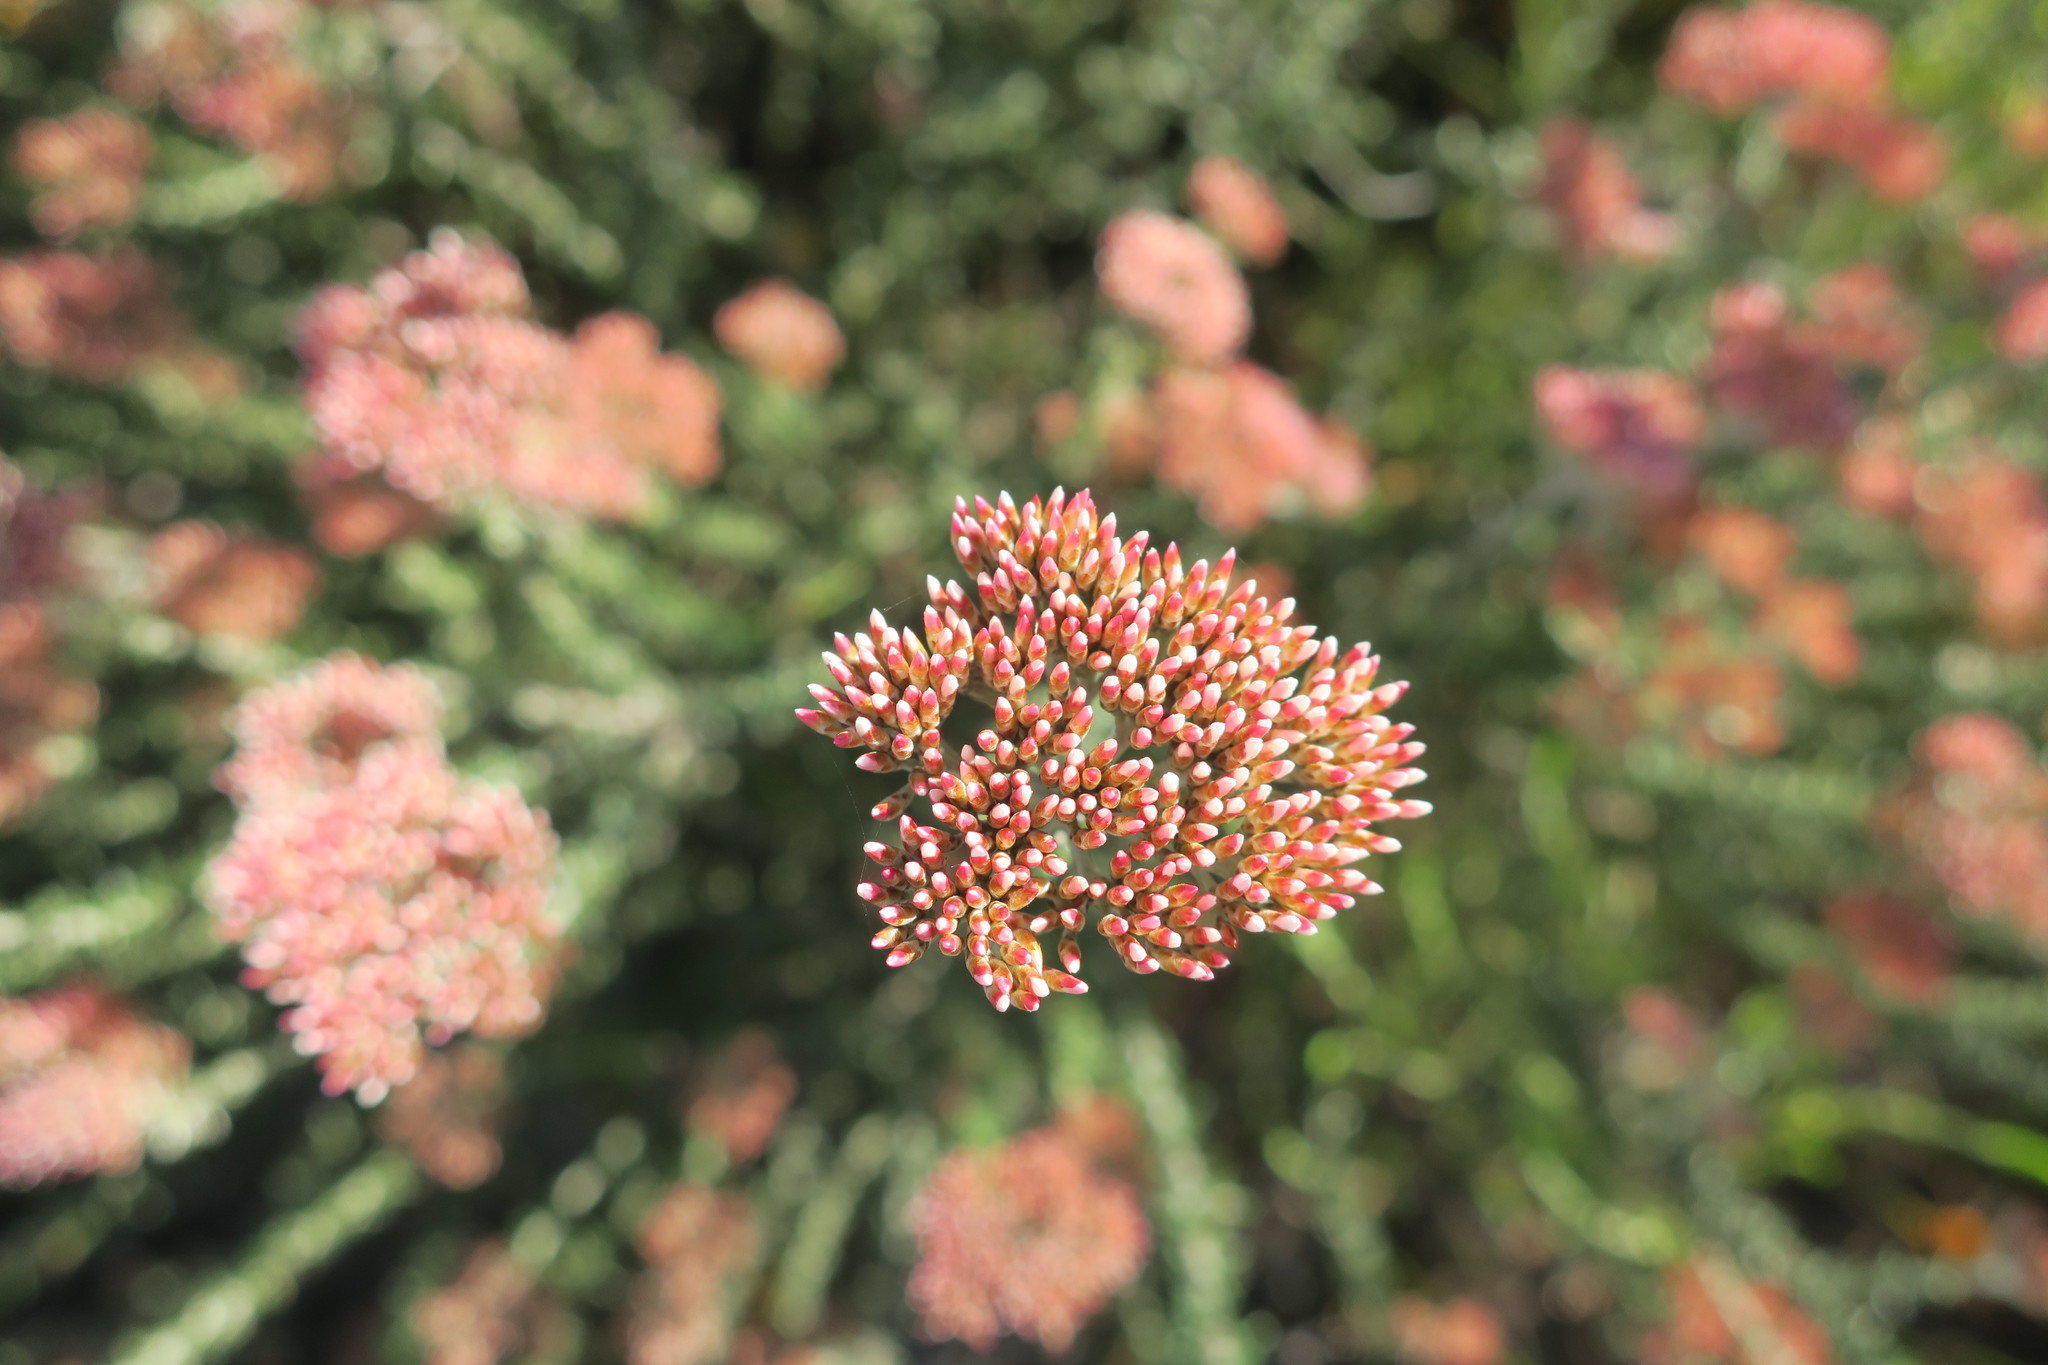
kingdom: Plantae
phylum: Tracheophyta
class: Magnoliopsida
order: Asterales
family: Asteraceae
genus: Metalasia
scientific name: Metalasia densa
